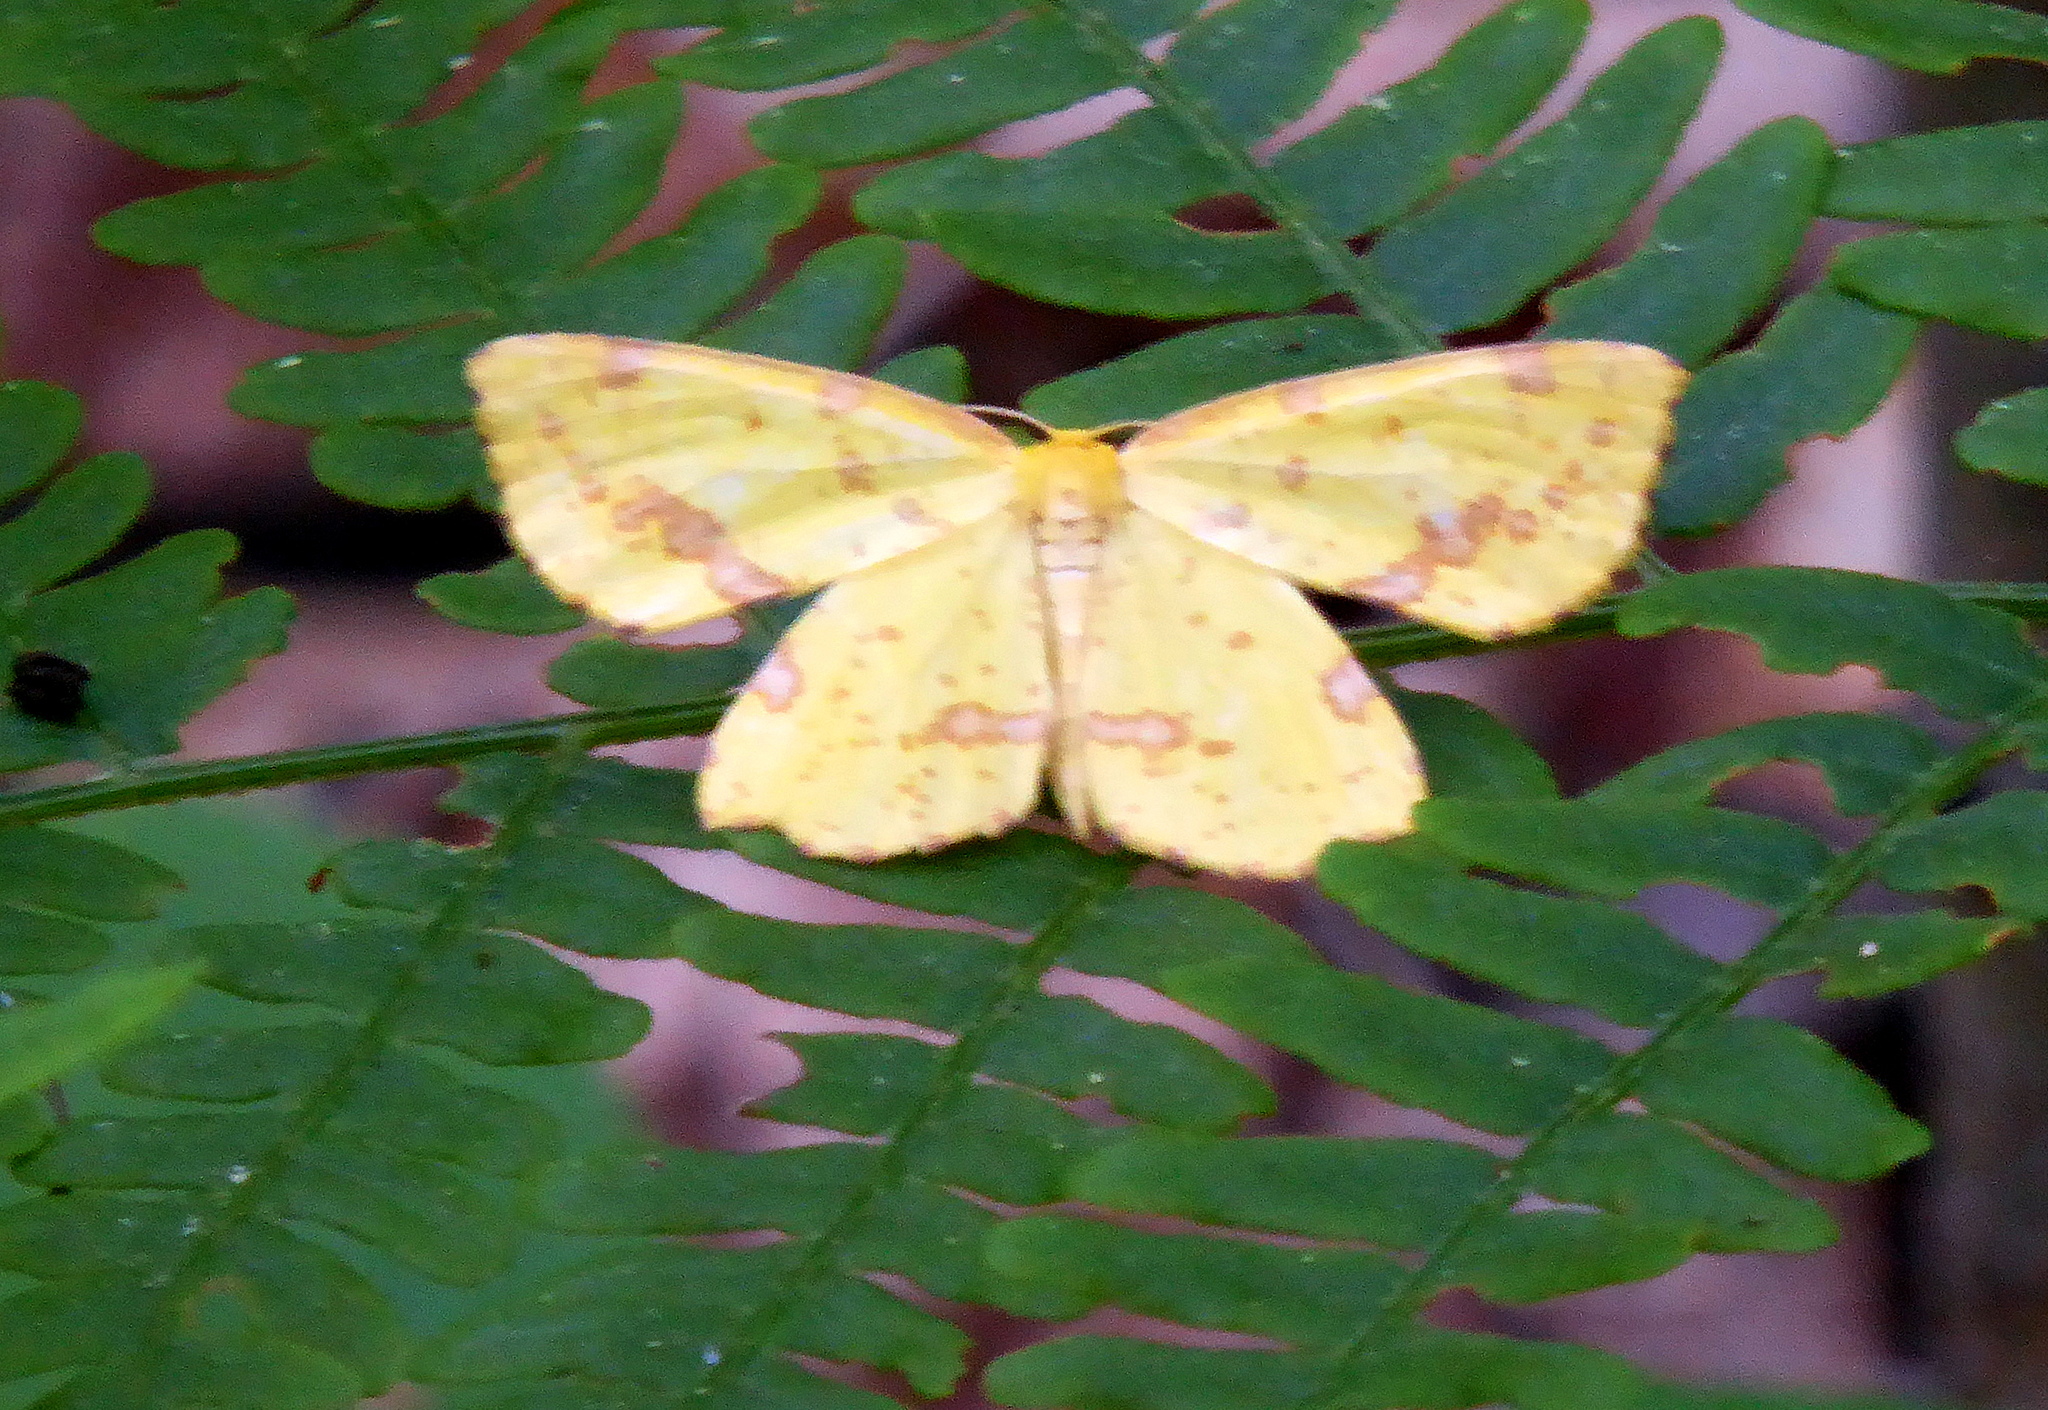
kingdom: Animalia
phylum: Arthropoda
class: Insecta
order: Lepidoptera
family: Geometridae
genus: Xanthotype
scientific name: Xanthotype
